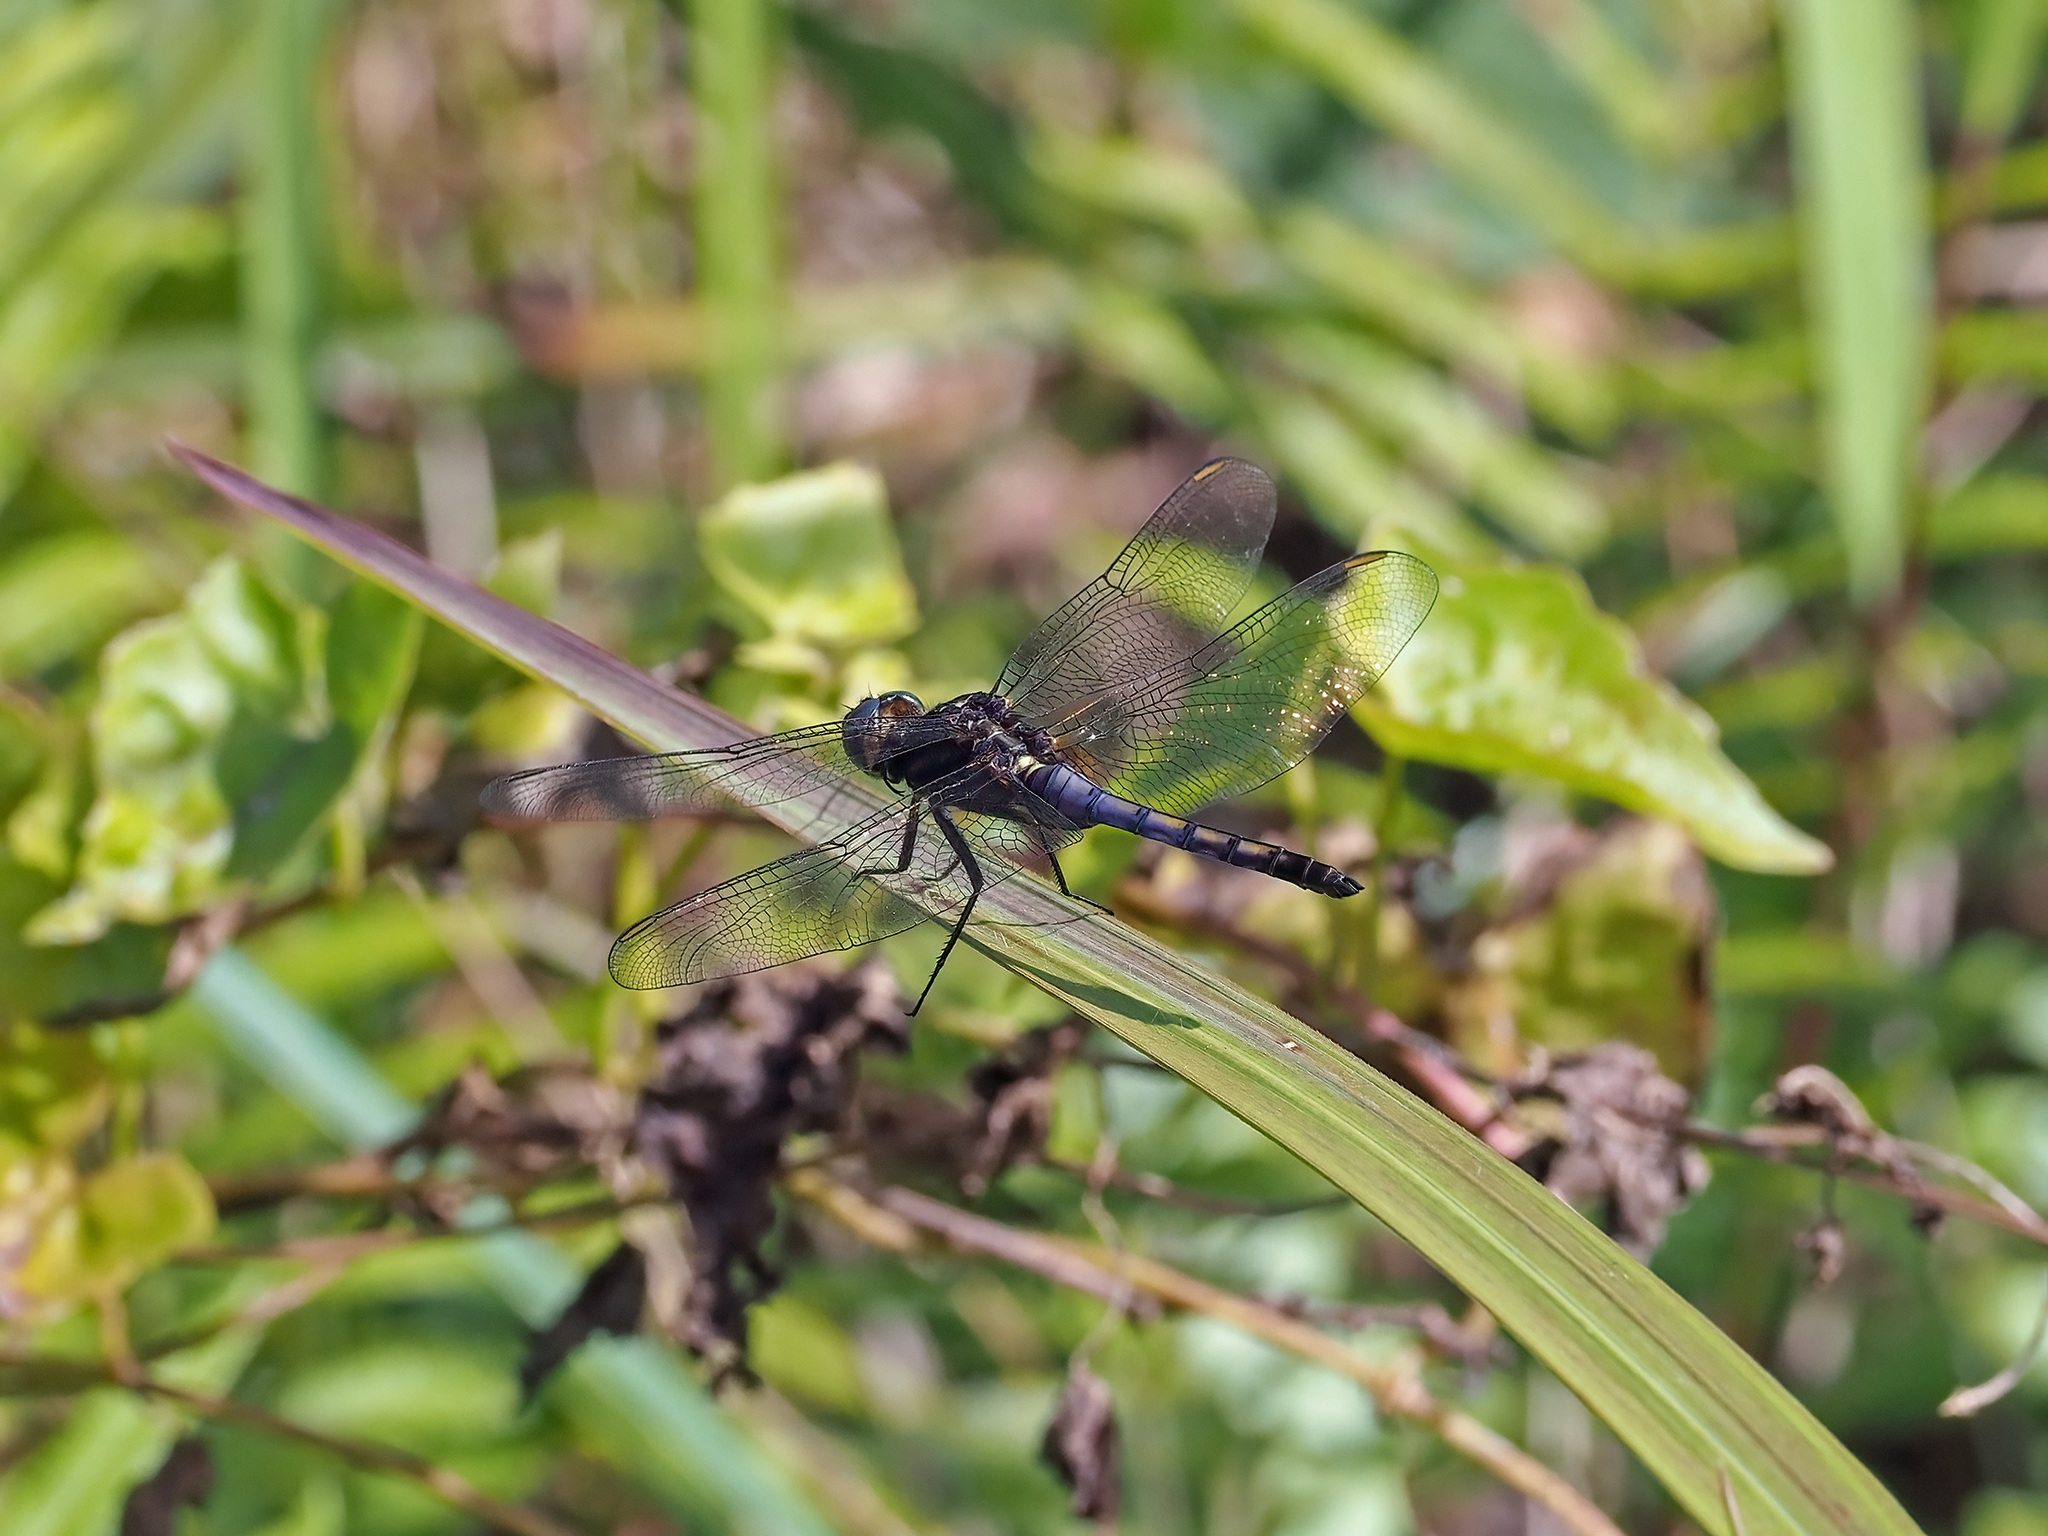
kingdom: Animalia
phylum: Arthropoda
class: Insecta
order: Odonata
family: Libellulidae
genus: Orthetrum
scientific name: Orthetrum glaucum
